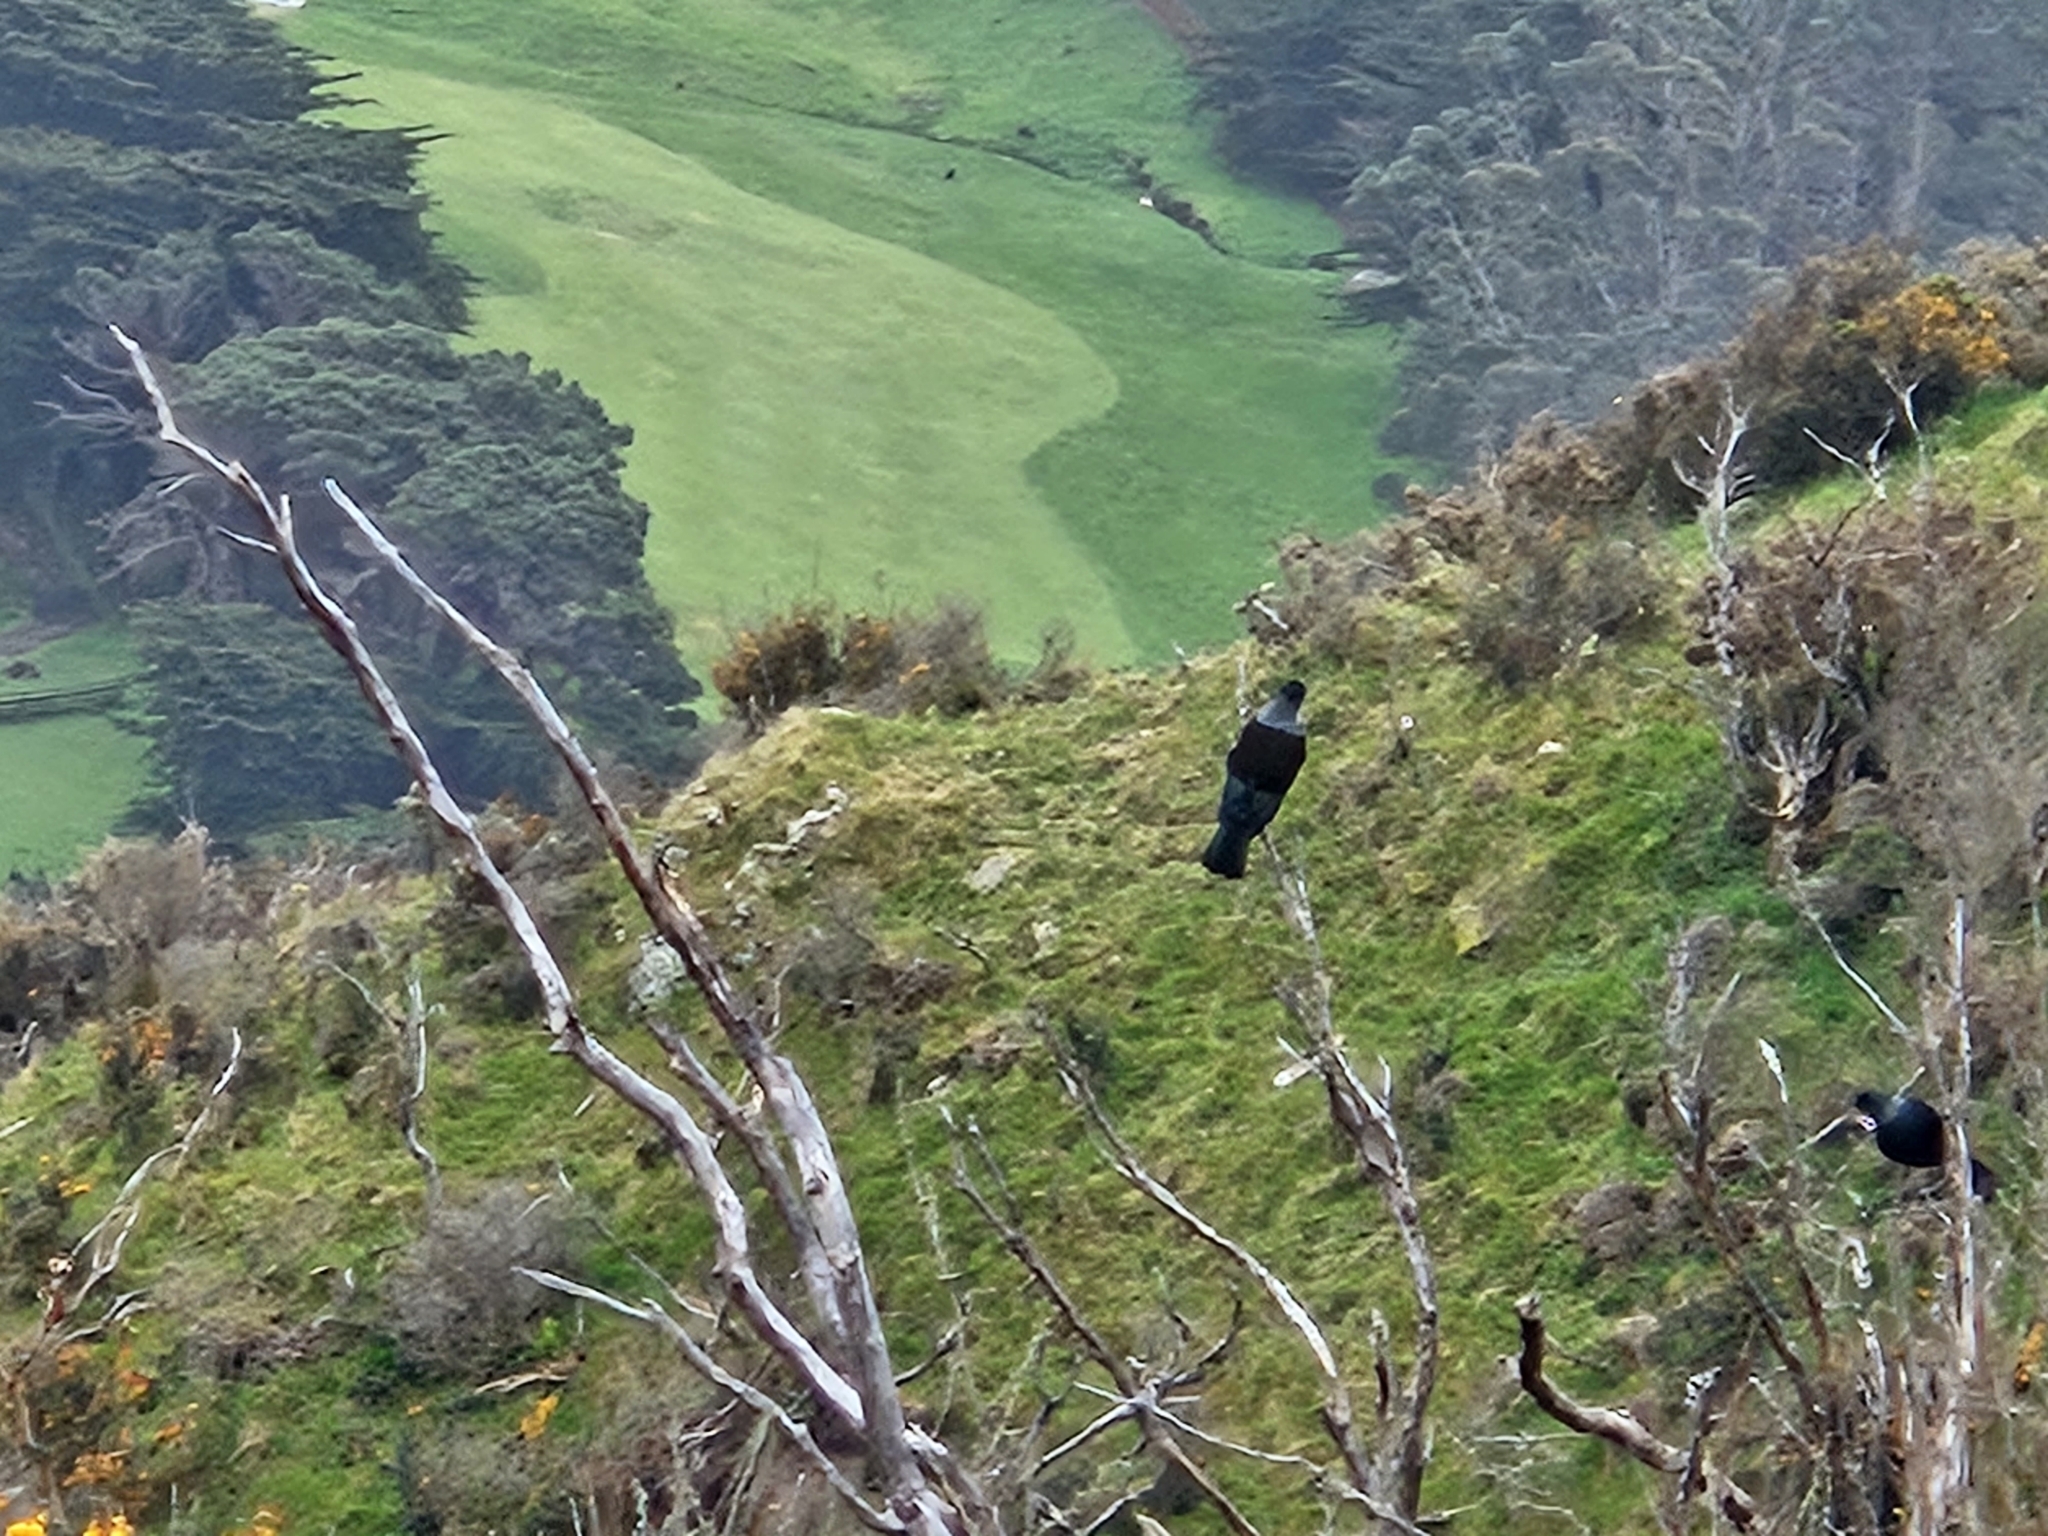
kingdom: Animalia
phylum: Chordata
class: Aves
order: Passeriformes
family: Meliphagidae
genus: Prosthemadera
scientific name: Prosthemadera novaeseelandiae
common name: Tui
